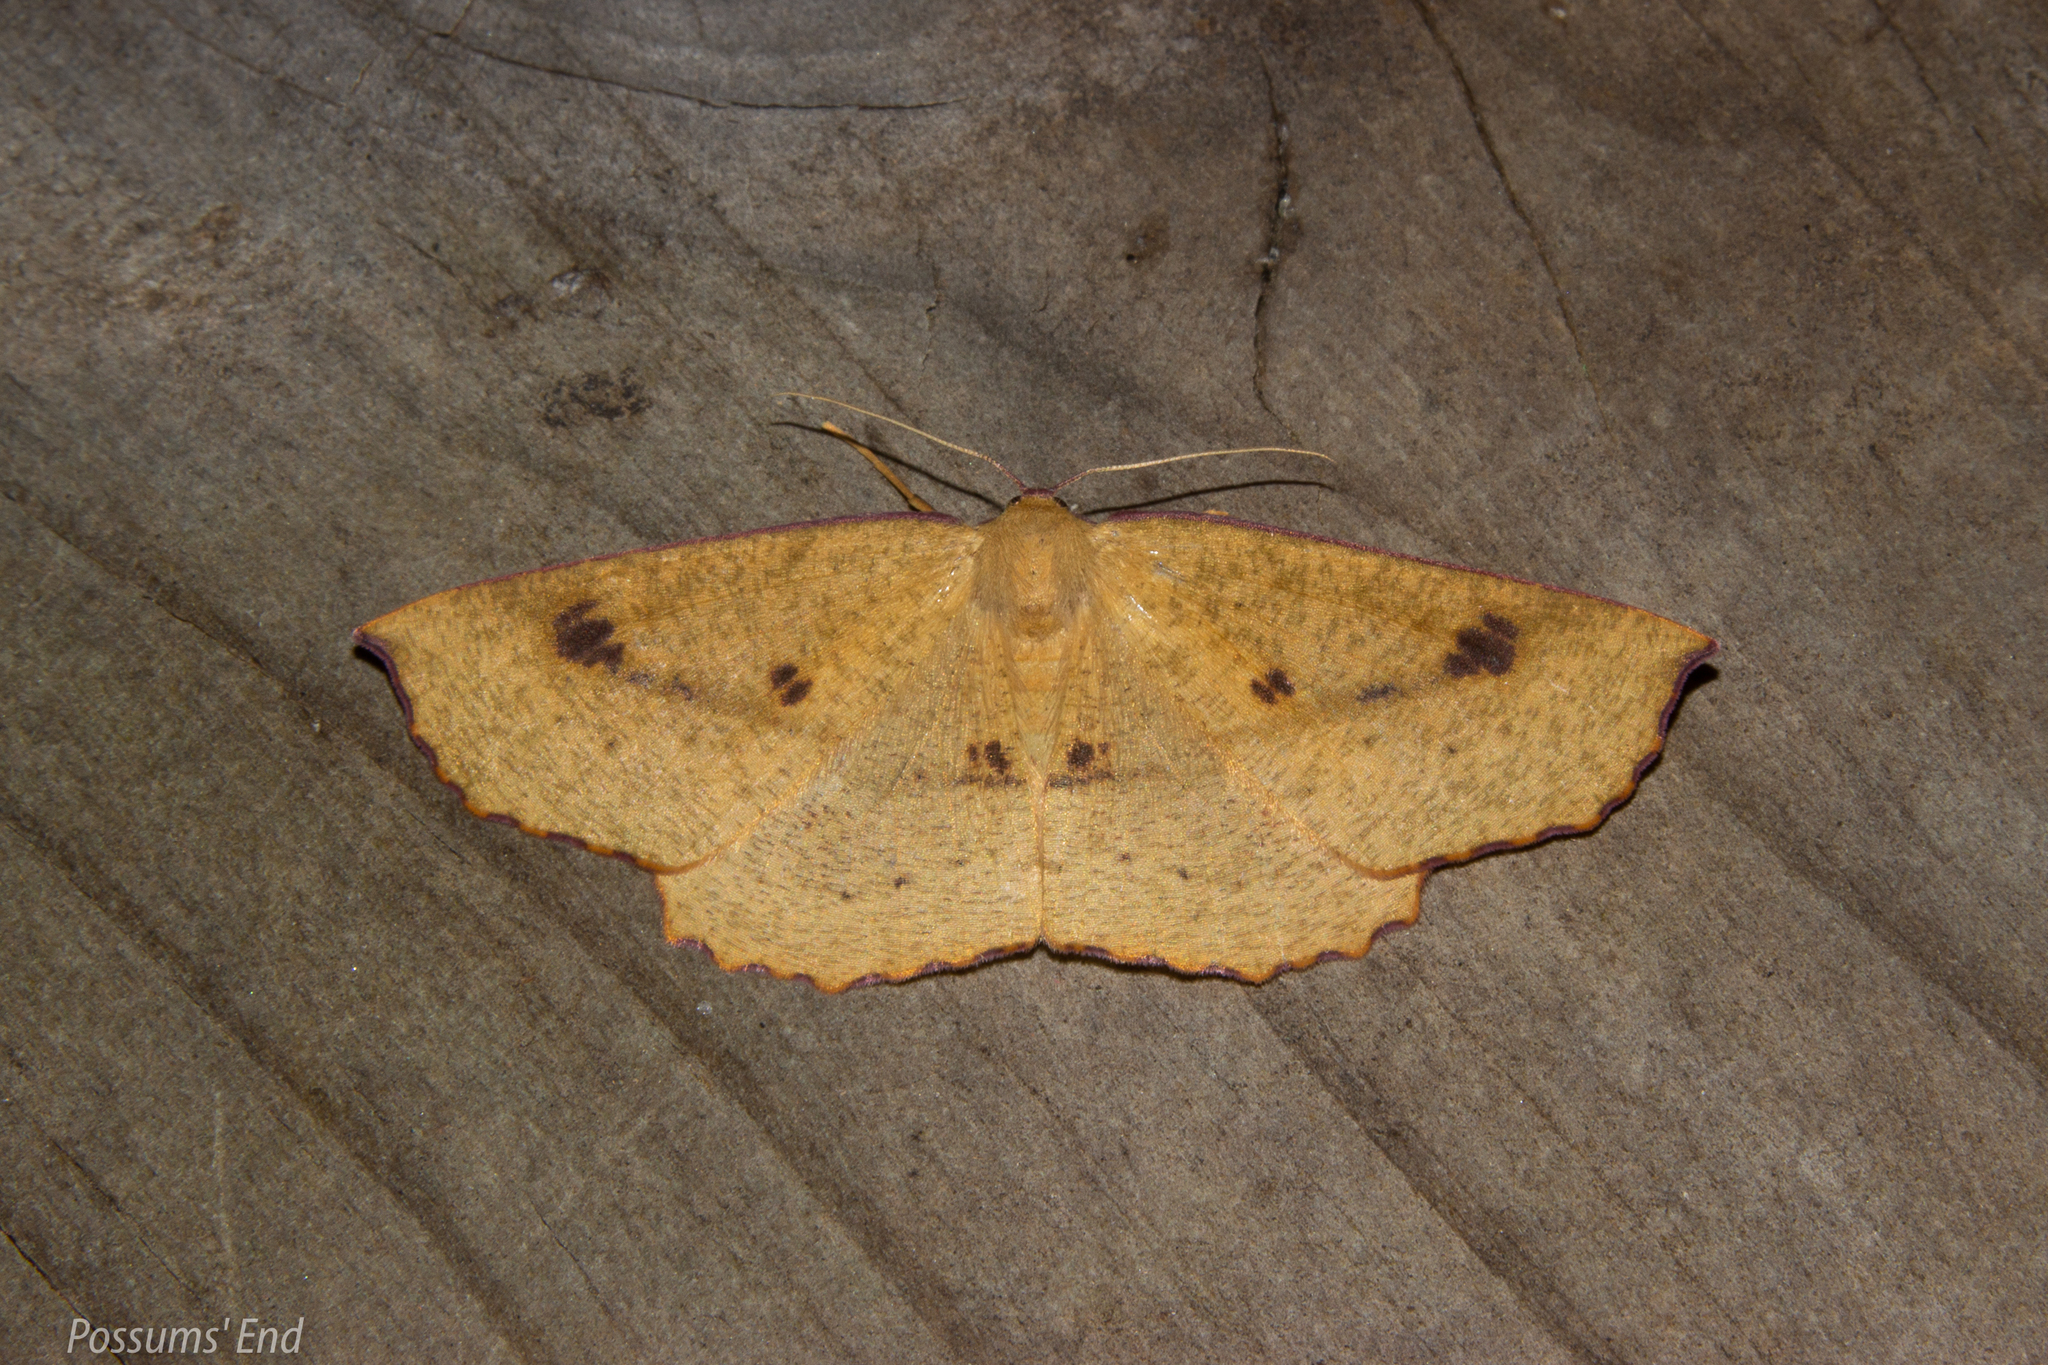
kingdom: Animalia
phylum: Arthropoda
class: Insecta
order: Lepidoptera
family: Geometridae
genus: Xyridacma
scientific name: Xyridacma alectoraria
